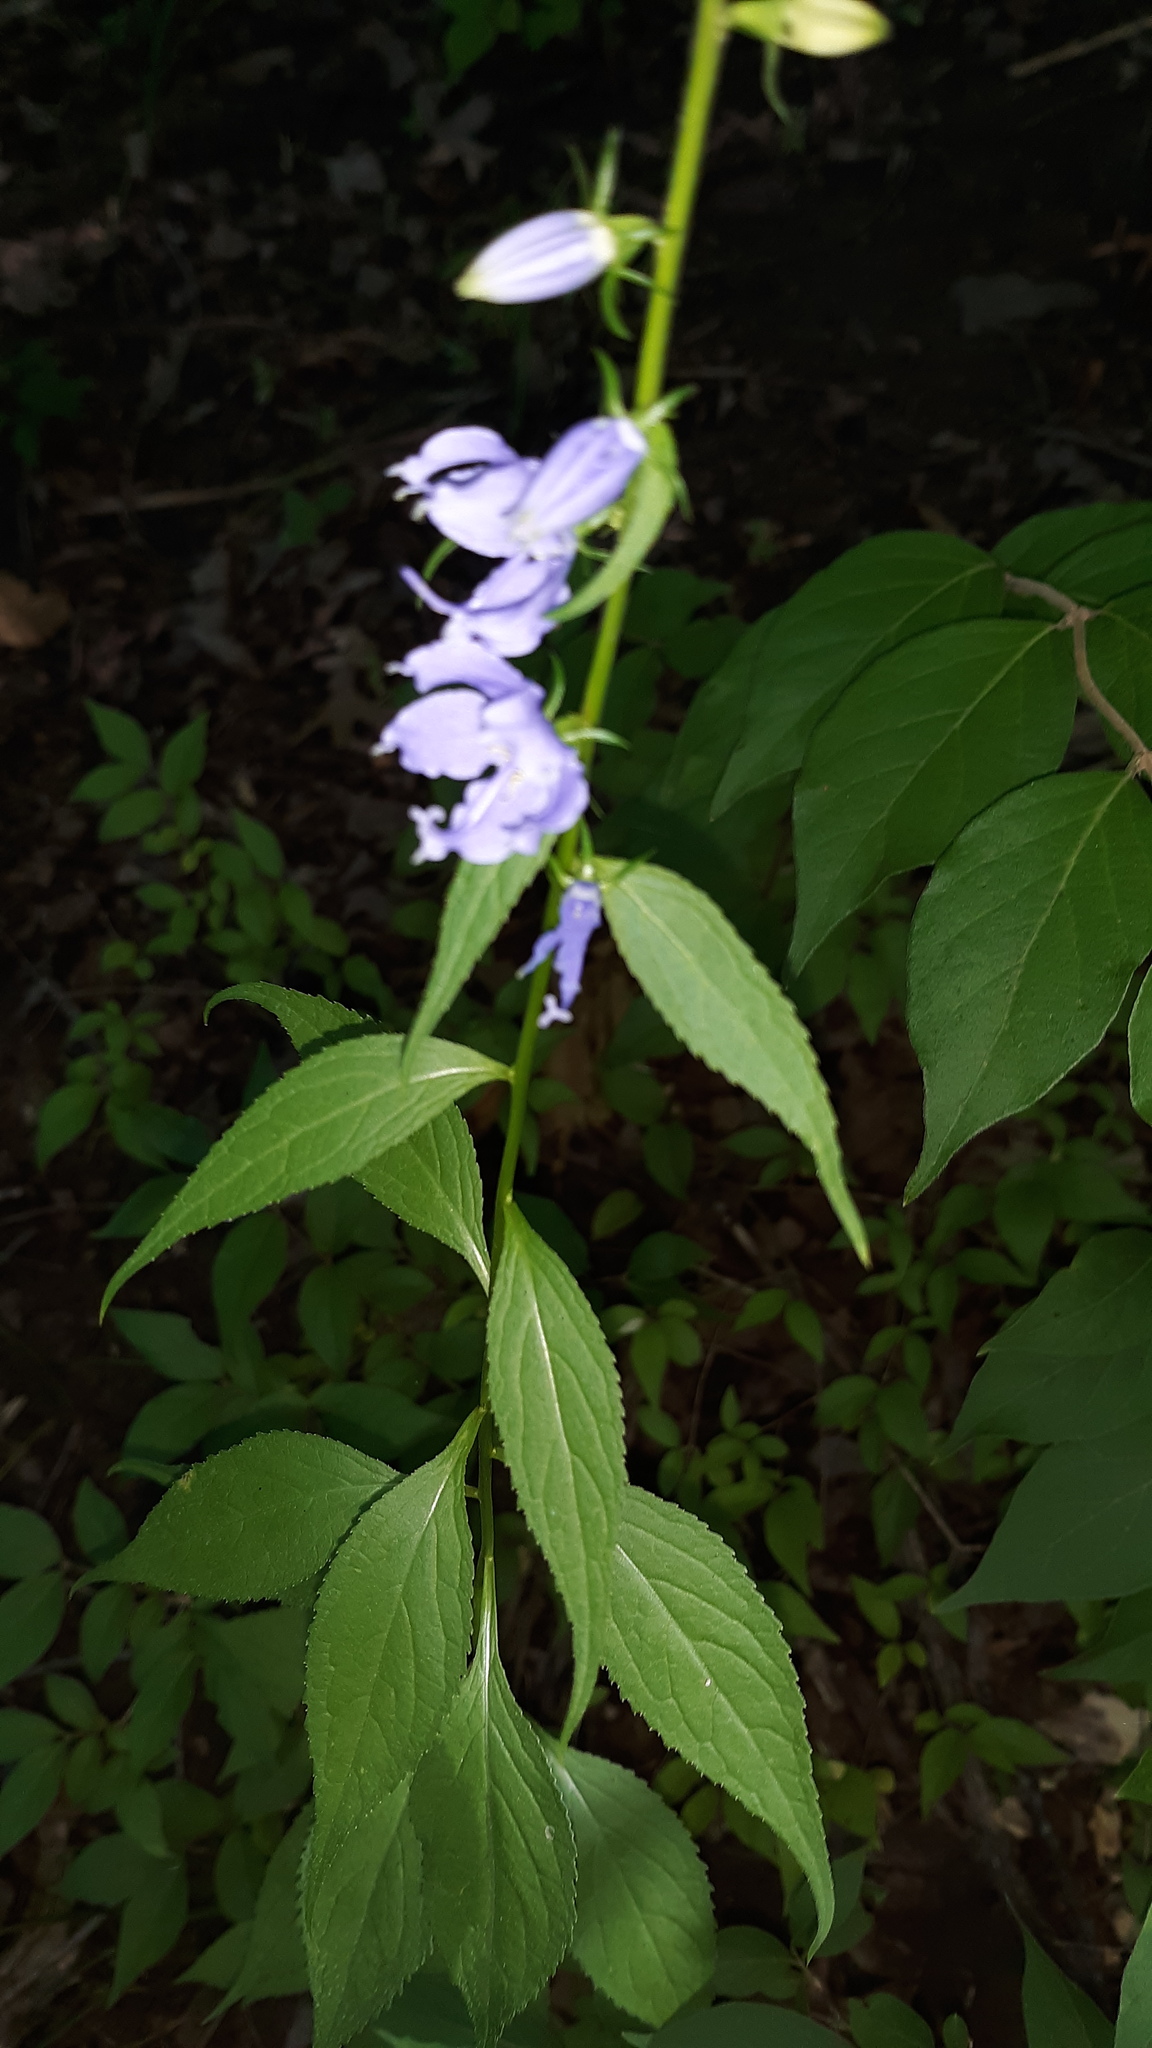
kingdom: Plantae
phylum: Tracheophyta
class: Magnoliopsida
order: Asterales
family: Campanulaceae
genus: Campanulastrum
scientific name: Campanulastrum americanum
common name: American bellflower
